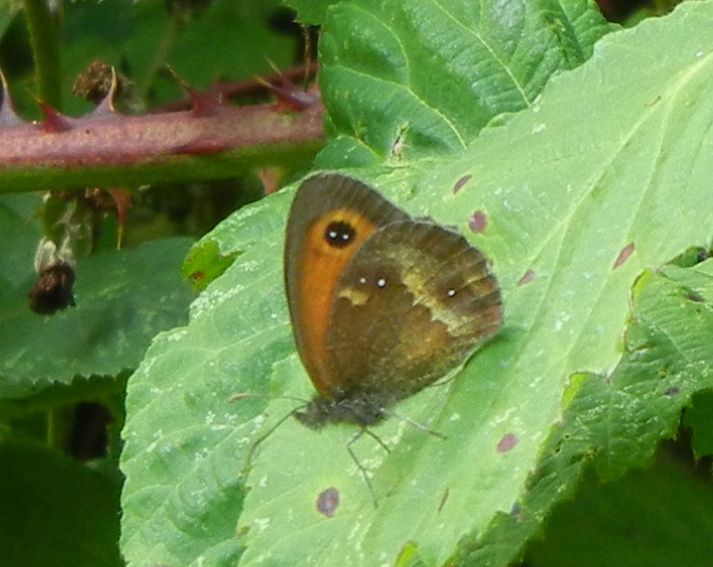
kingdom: Animalia
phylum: Arthropoda
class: Insecta
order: Lepidoptera
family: Nymphalidae
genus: Pyronia
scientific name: Pyronia tithonus
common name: Gatekeeper
